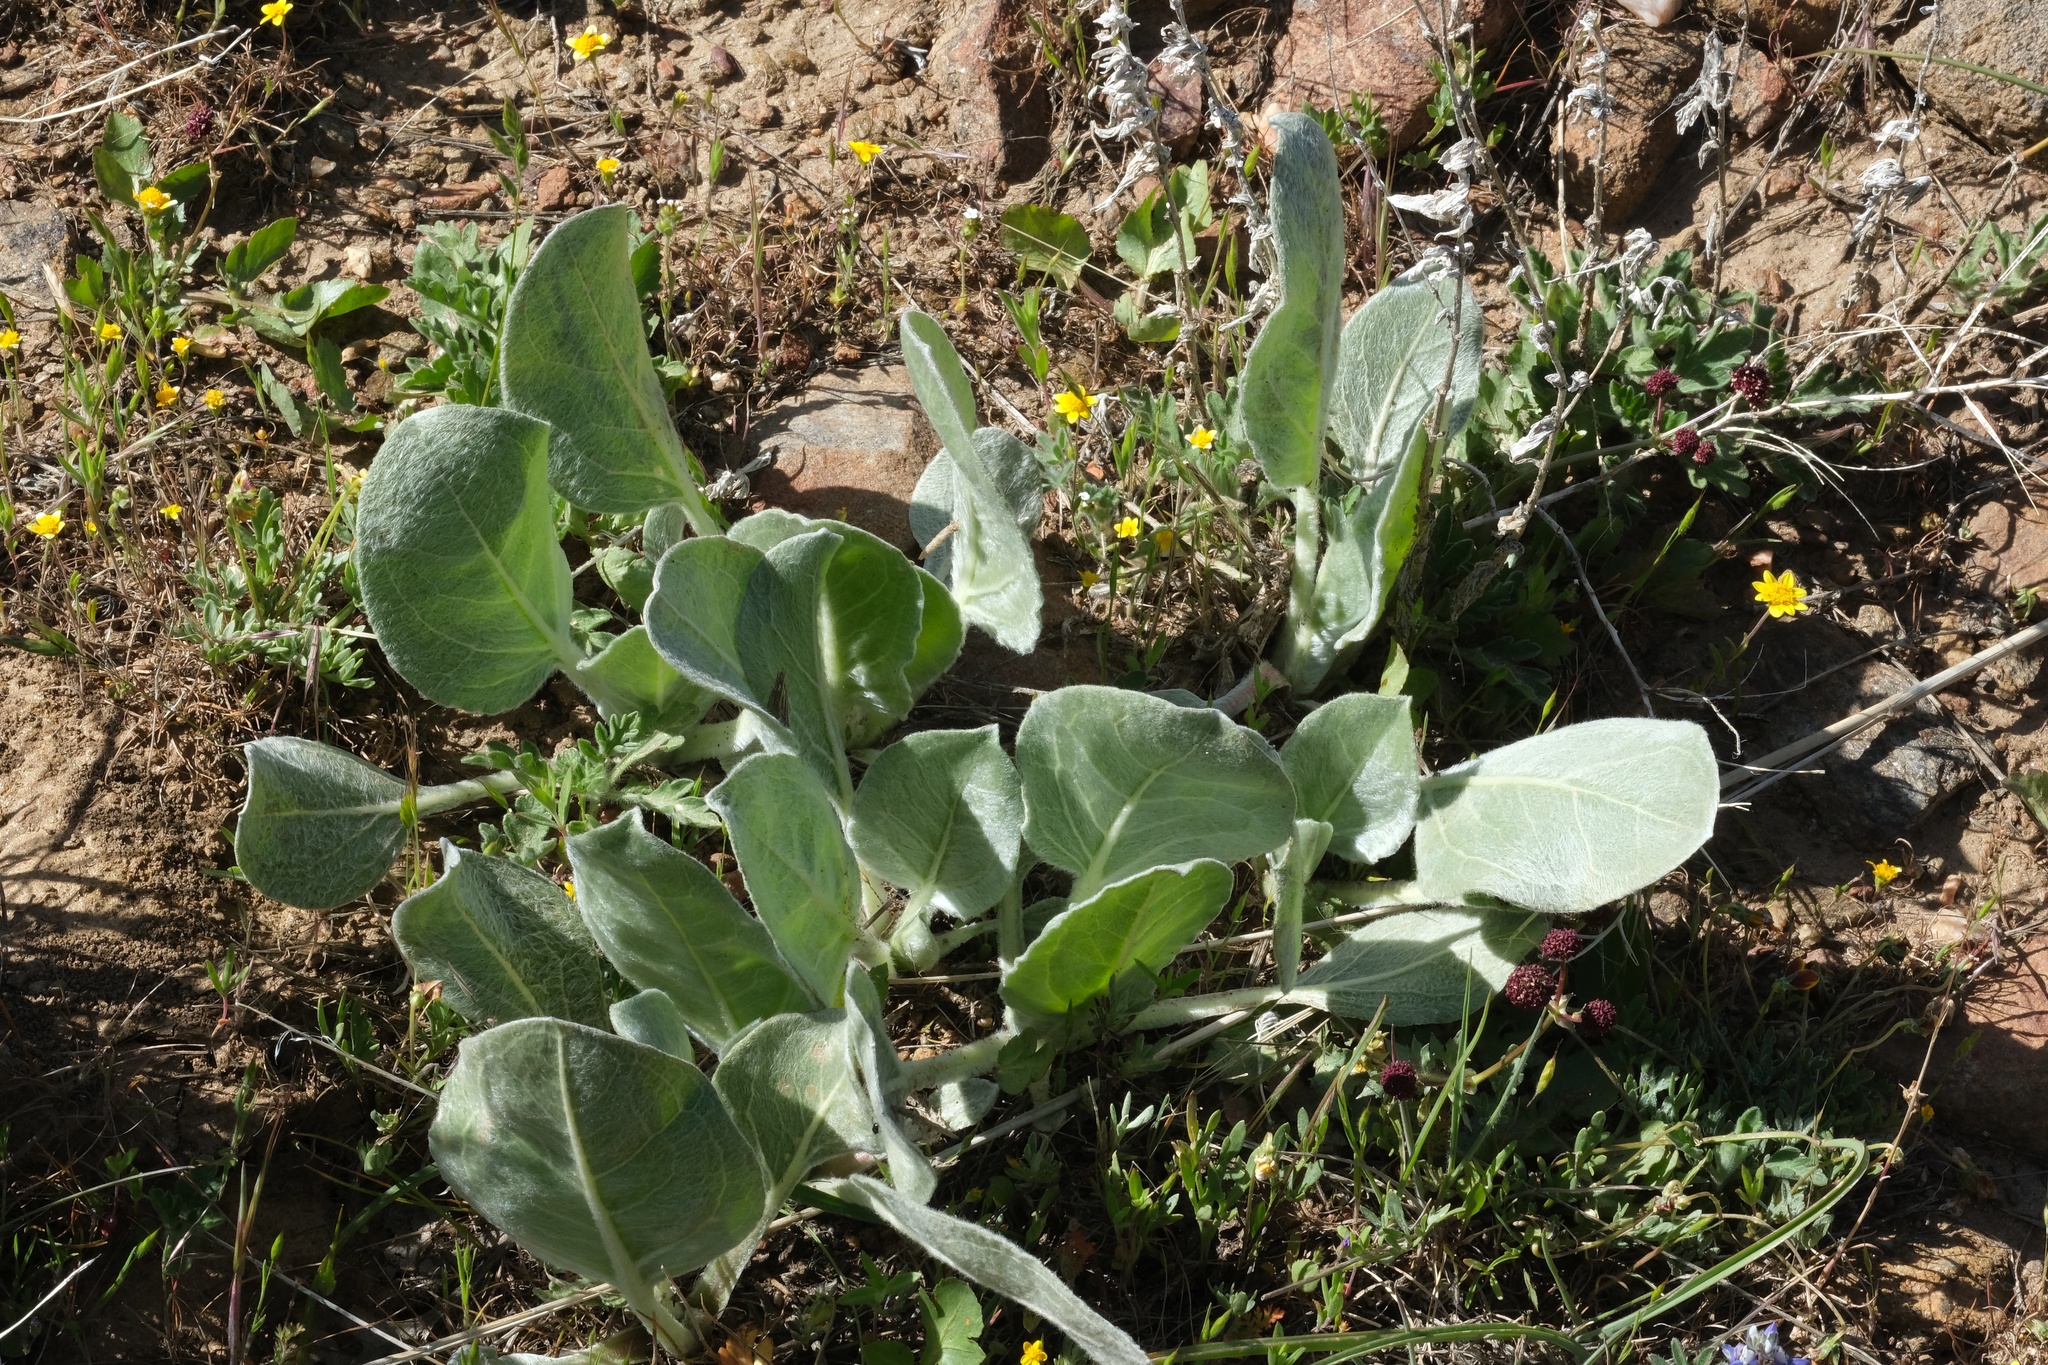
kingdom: Plantae
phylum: Tracheophyta
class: Magnoliopsida
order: Asterales
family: Asteraceae
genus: Agnorhiza
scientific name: Agnorhiza ovata
